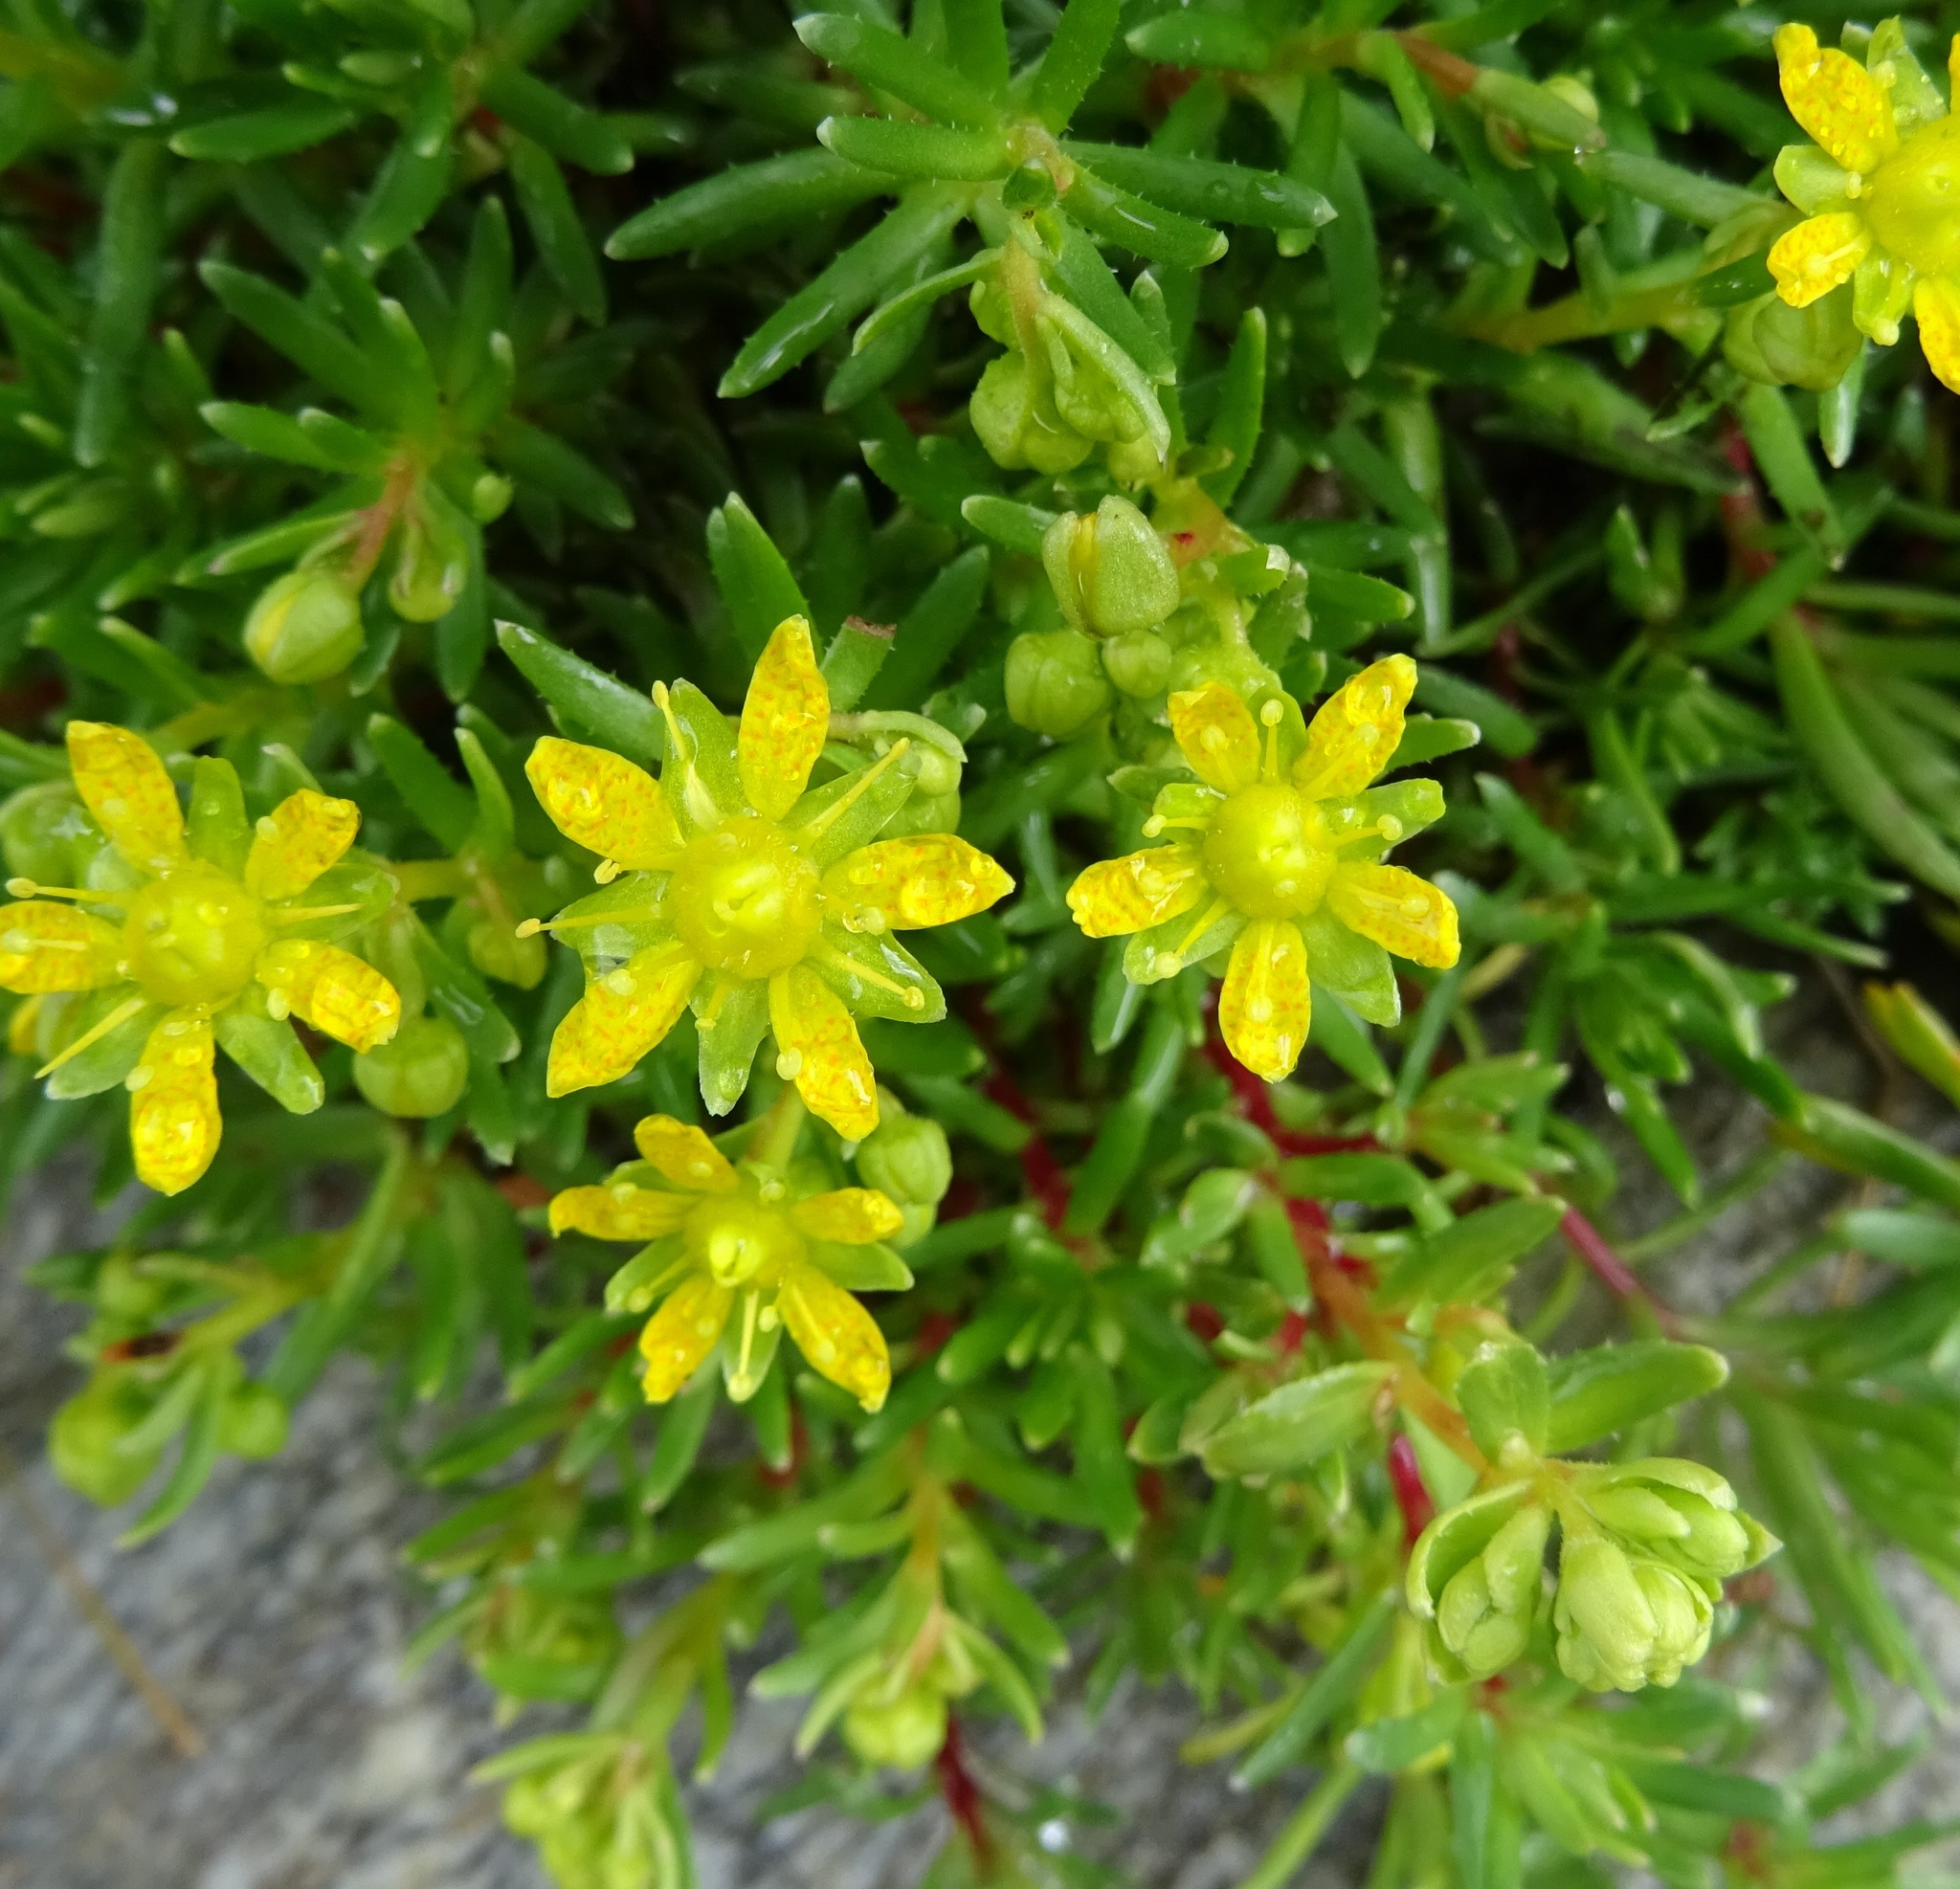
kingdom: Plantae
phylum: Tracheophyta
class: Magnoliopsida
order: Saxifragales
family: Saxifragaceae
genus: Saxifraga
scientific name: Saxifraga aizoides
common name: Yellow mountain saxifrage
